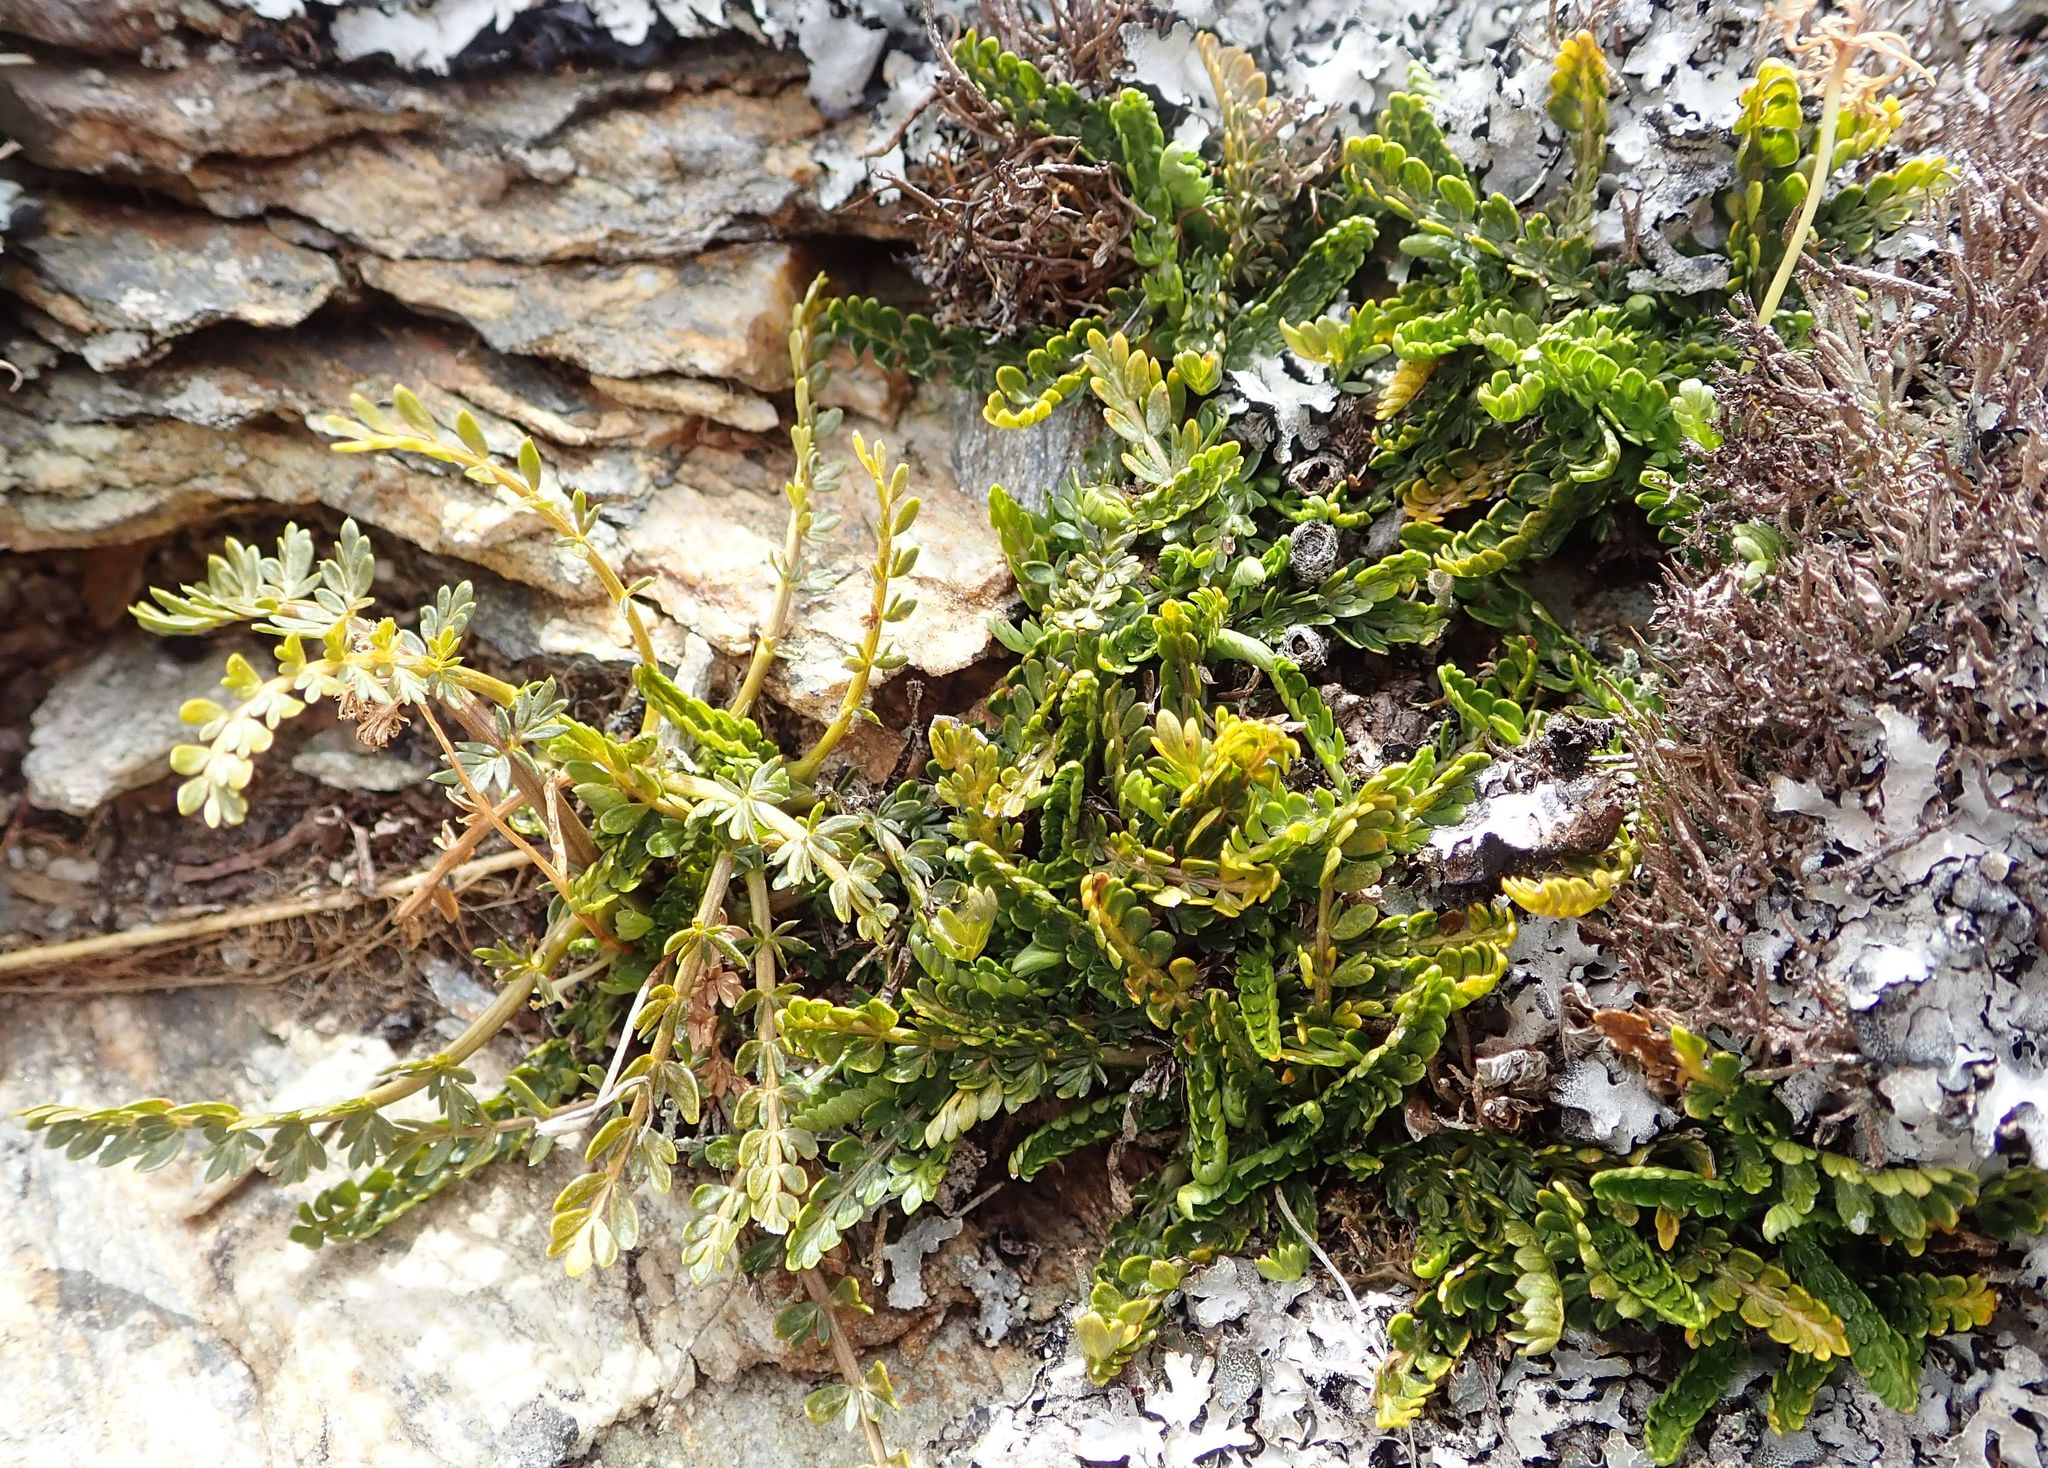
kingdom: Plantae
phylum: Tracheophyta
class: Magnoliopsida
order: Apiales
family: Apiaceae
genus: Anisotome
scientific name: Anisotome aromatica
